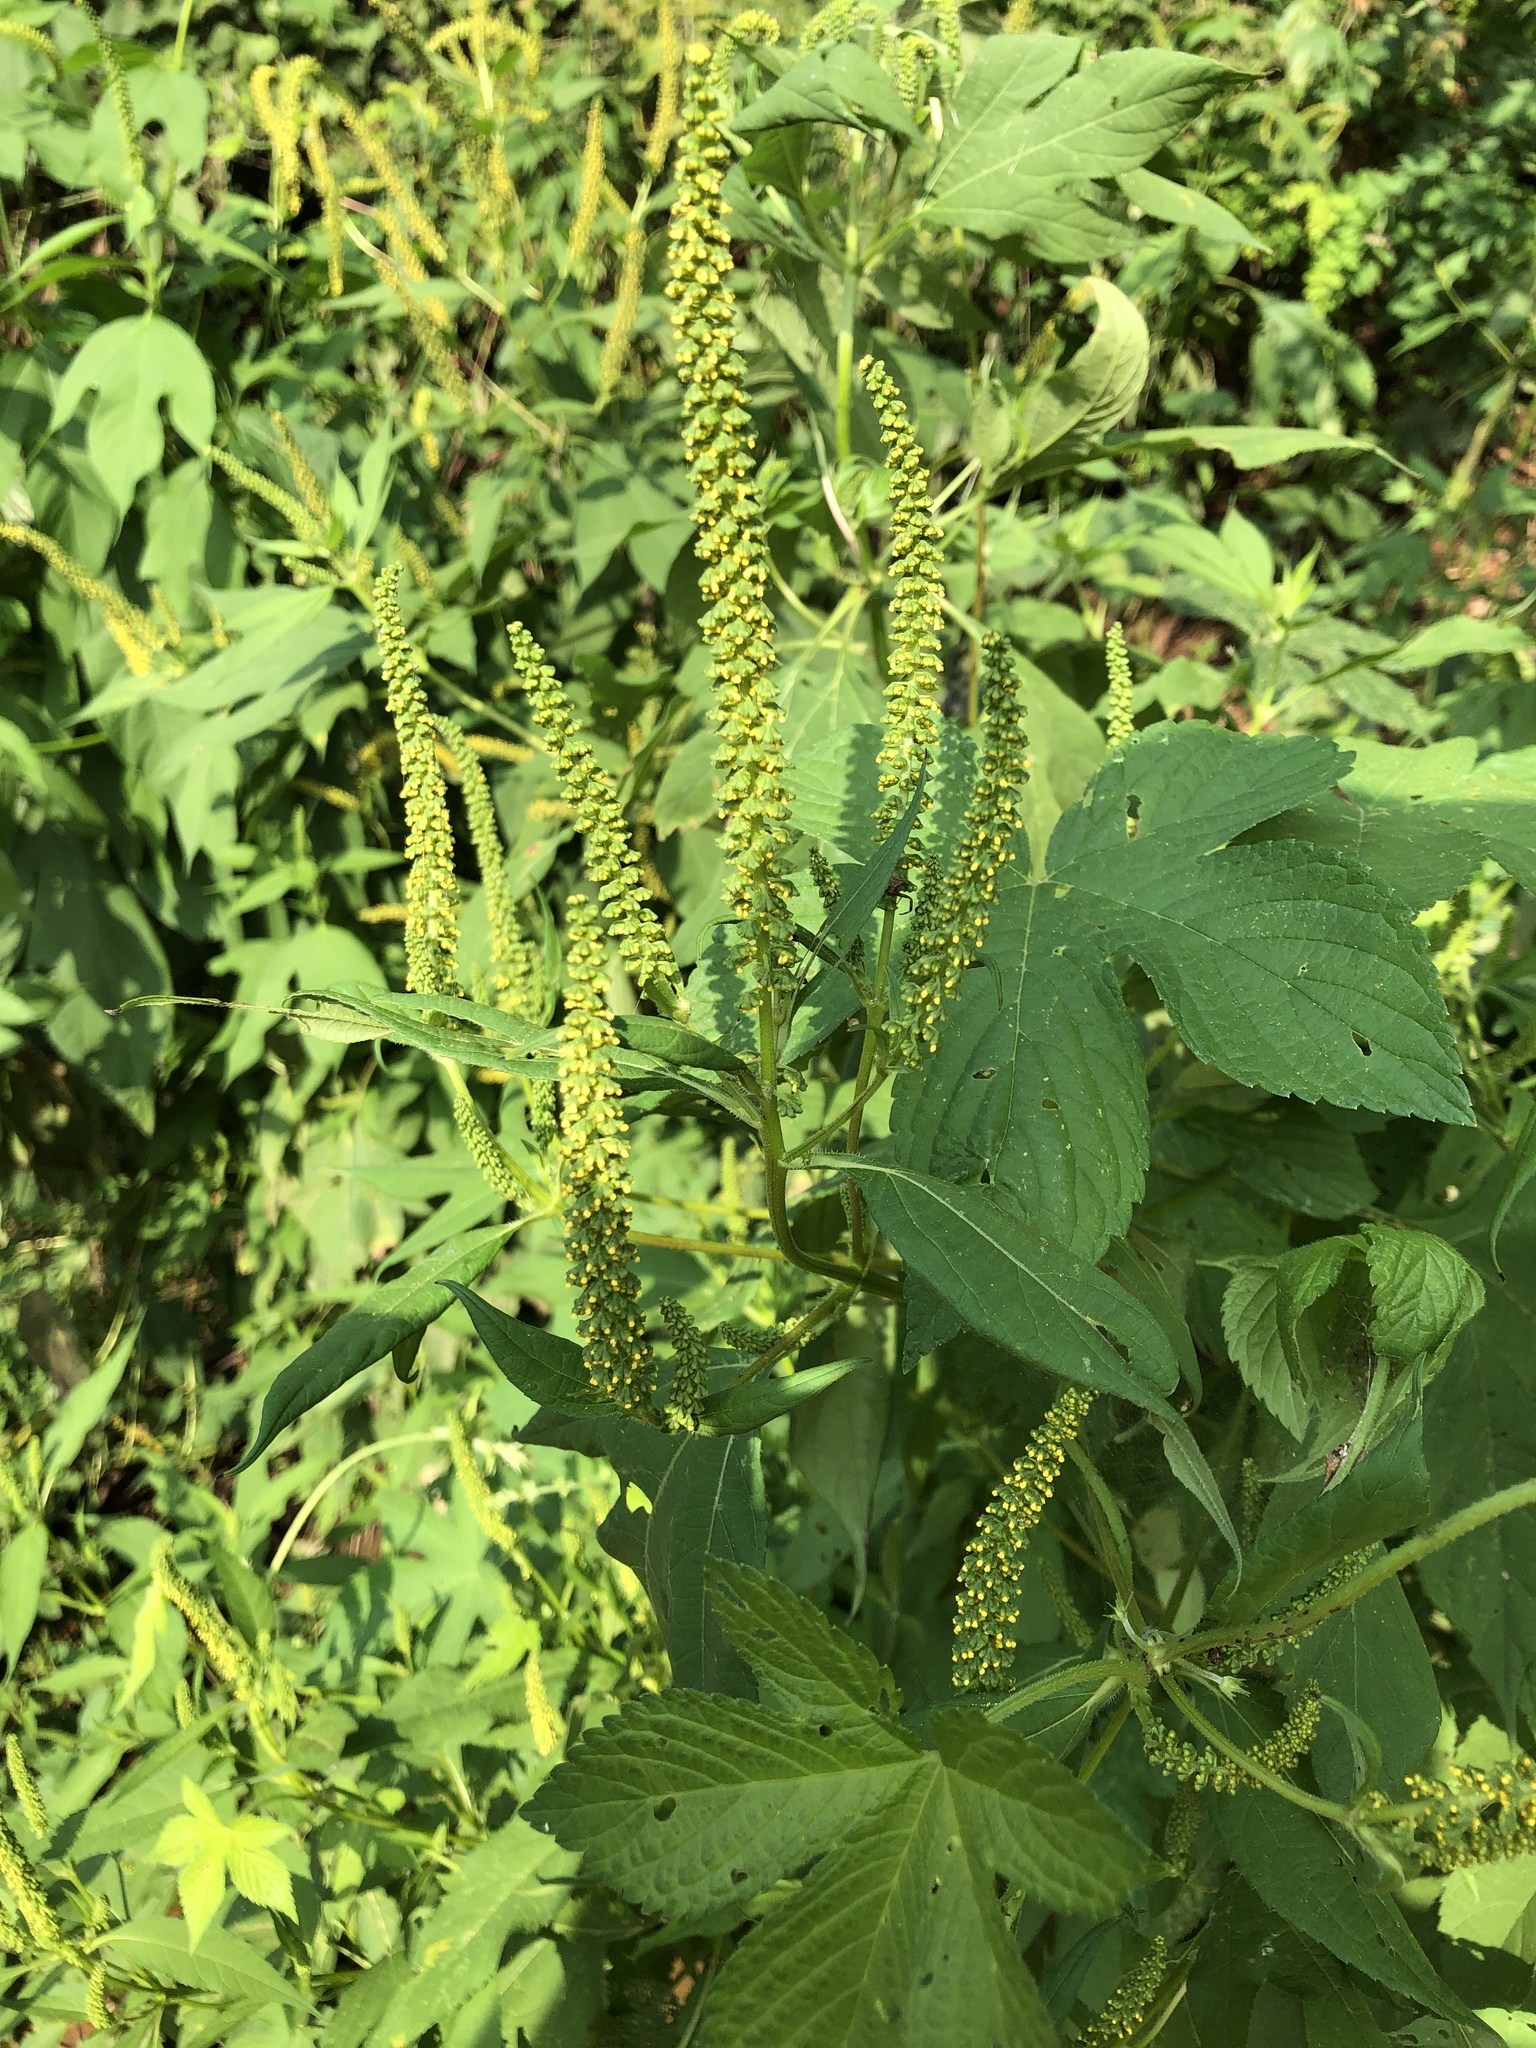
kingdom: Plantae
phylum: Tracheophyta
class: Magnoliopsida
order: Asterales
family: Asteraceae
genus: Ambrosia
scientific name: Ambrosia trifida
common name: Giant ragweed
